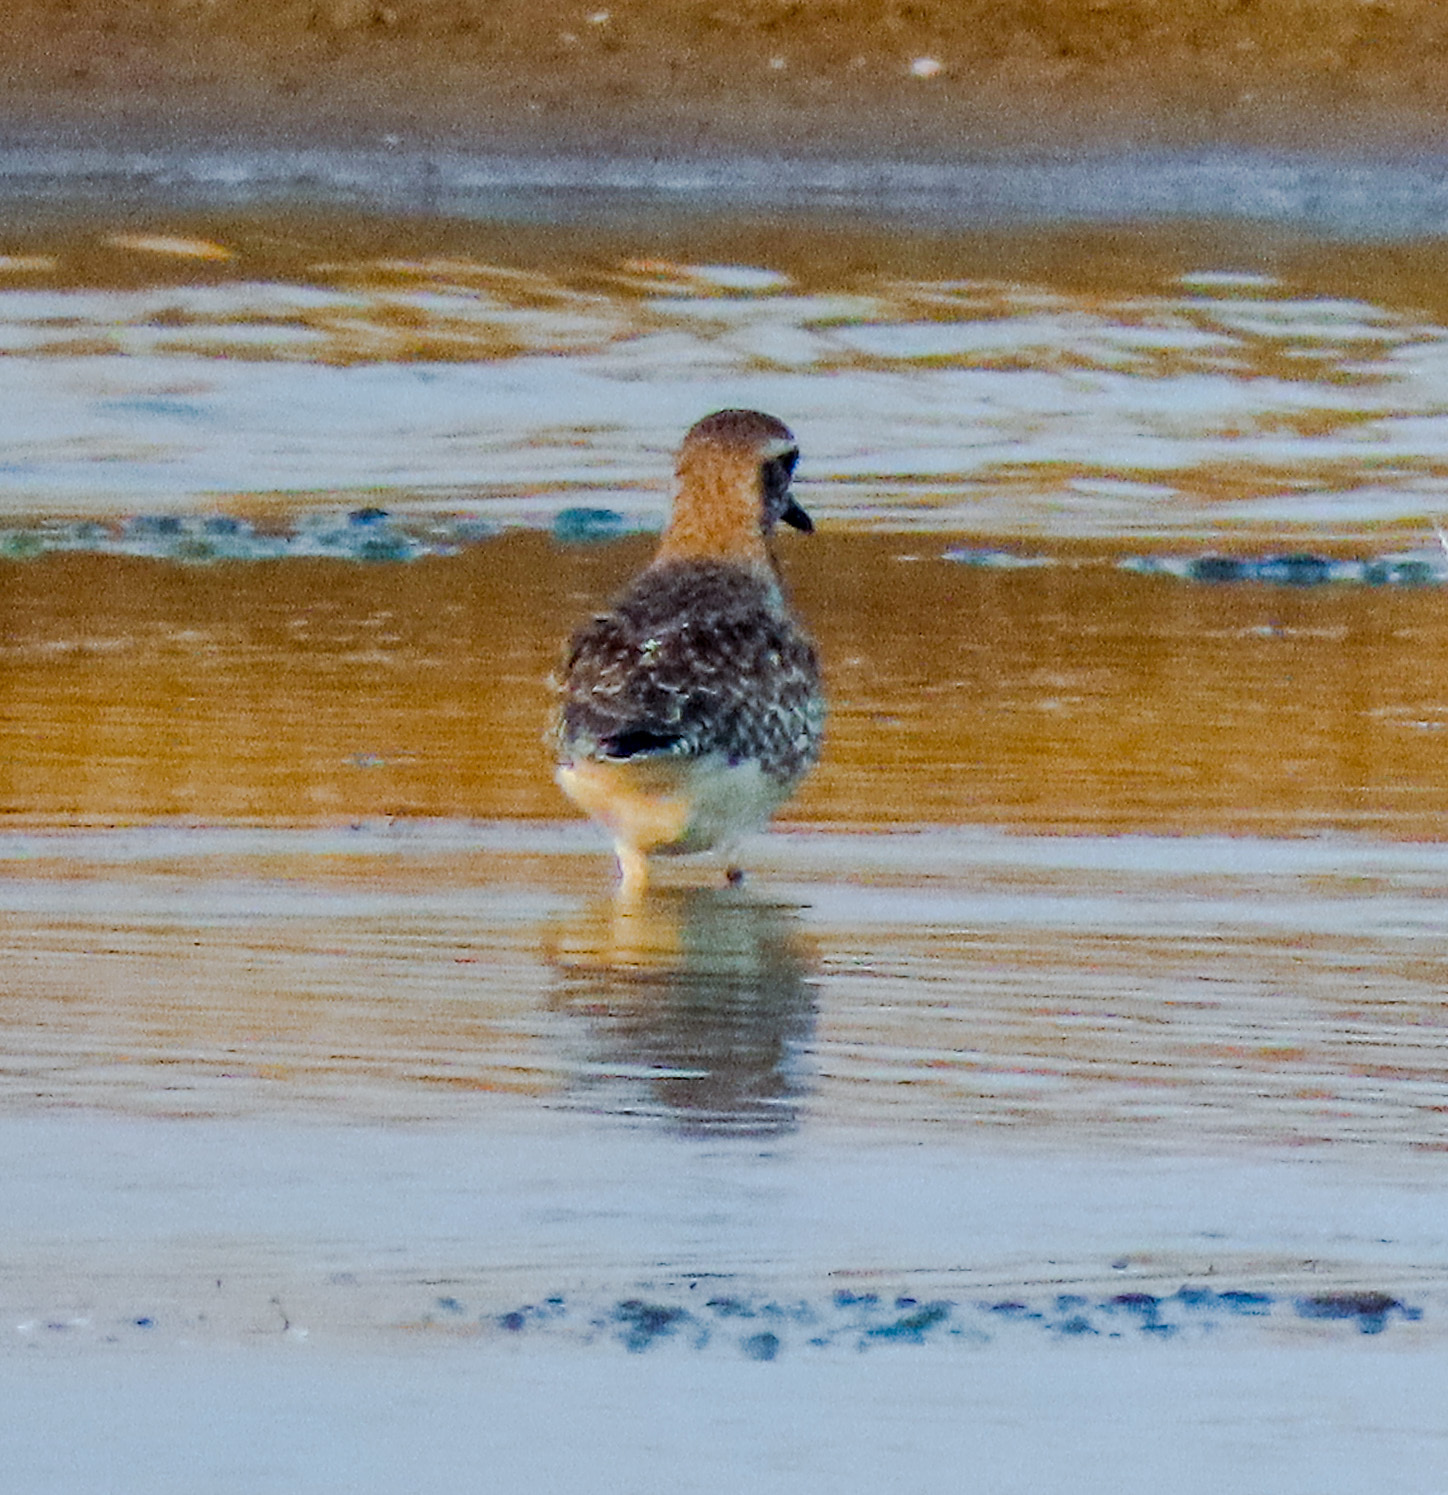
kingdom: Animalia
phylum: Chordata
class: Aves
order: Charadriiformes
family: Charadriidae
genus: Pluvialis
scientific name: Pluvialis fulva
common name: Pacific golden plover
